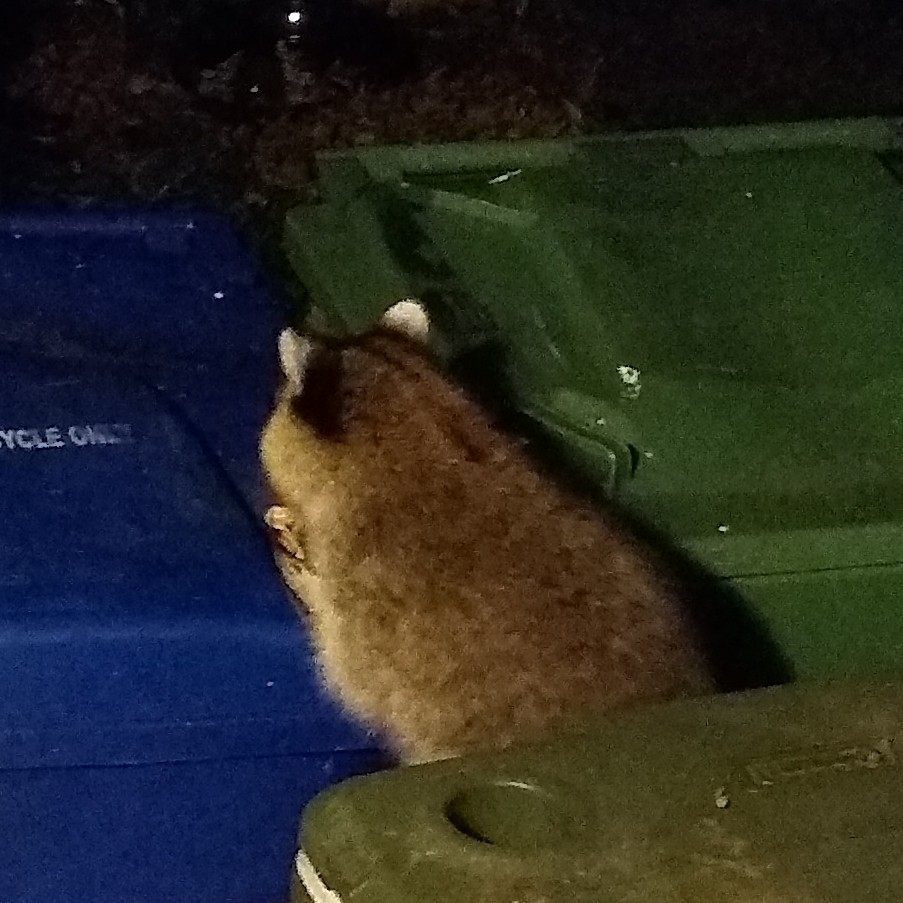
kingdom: Animalia
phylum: Chordata
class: Mammalia
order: Carnivora
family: Procyonidae
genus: Procyon
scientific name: Procyon lotor
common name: Raccoon
